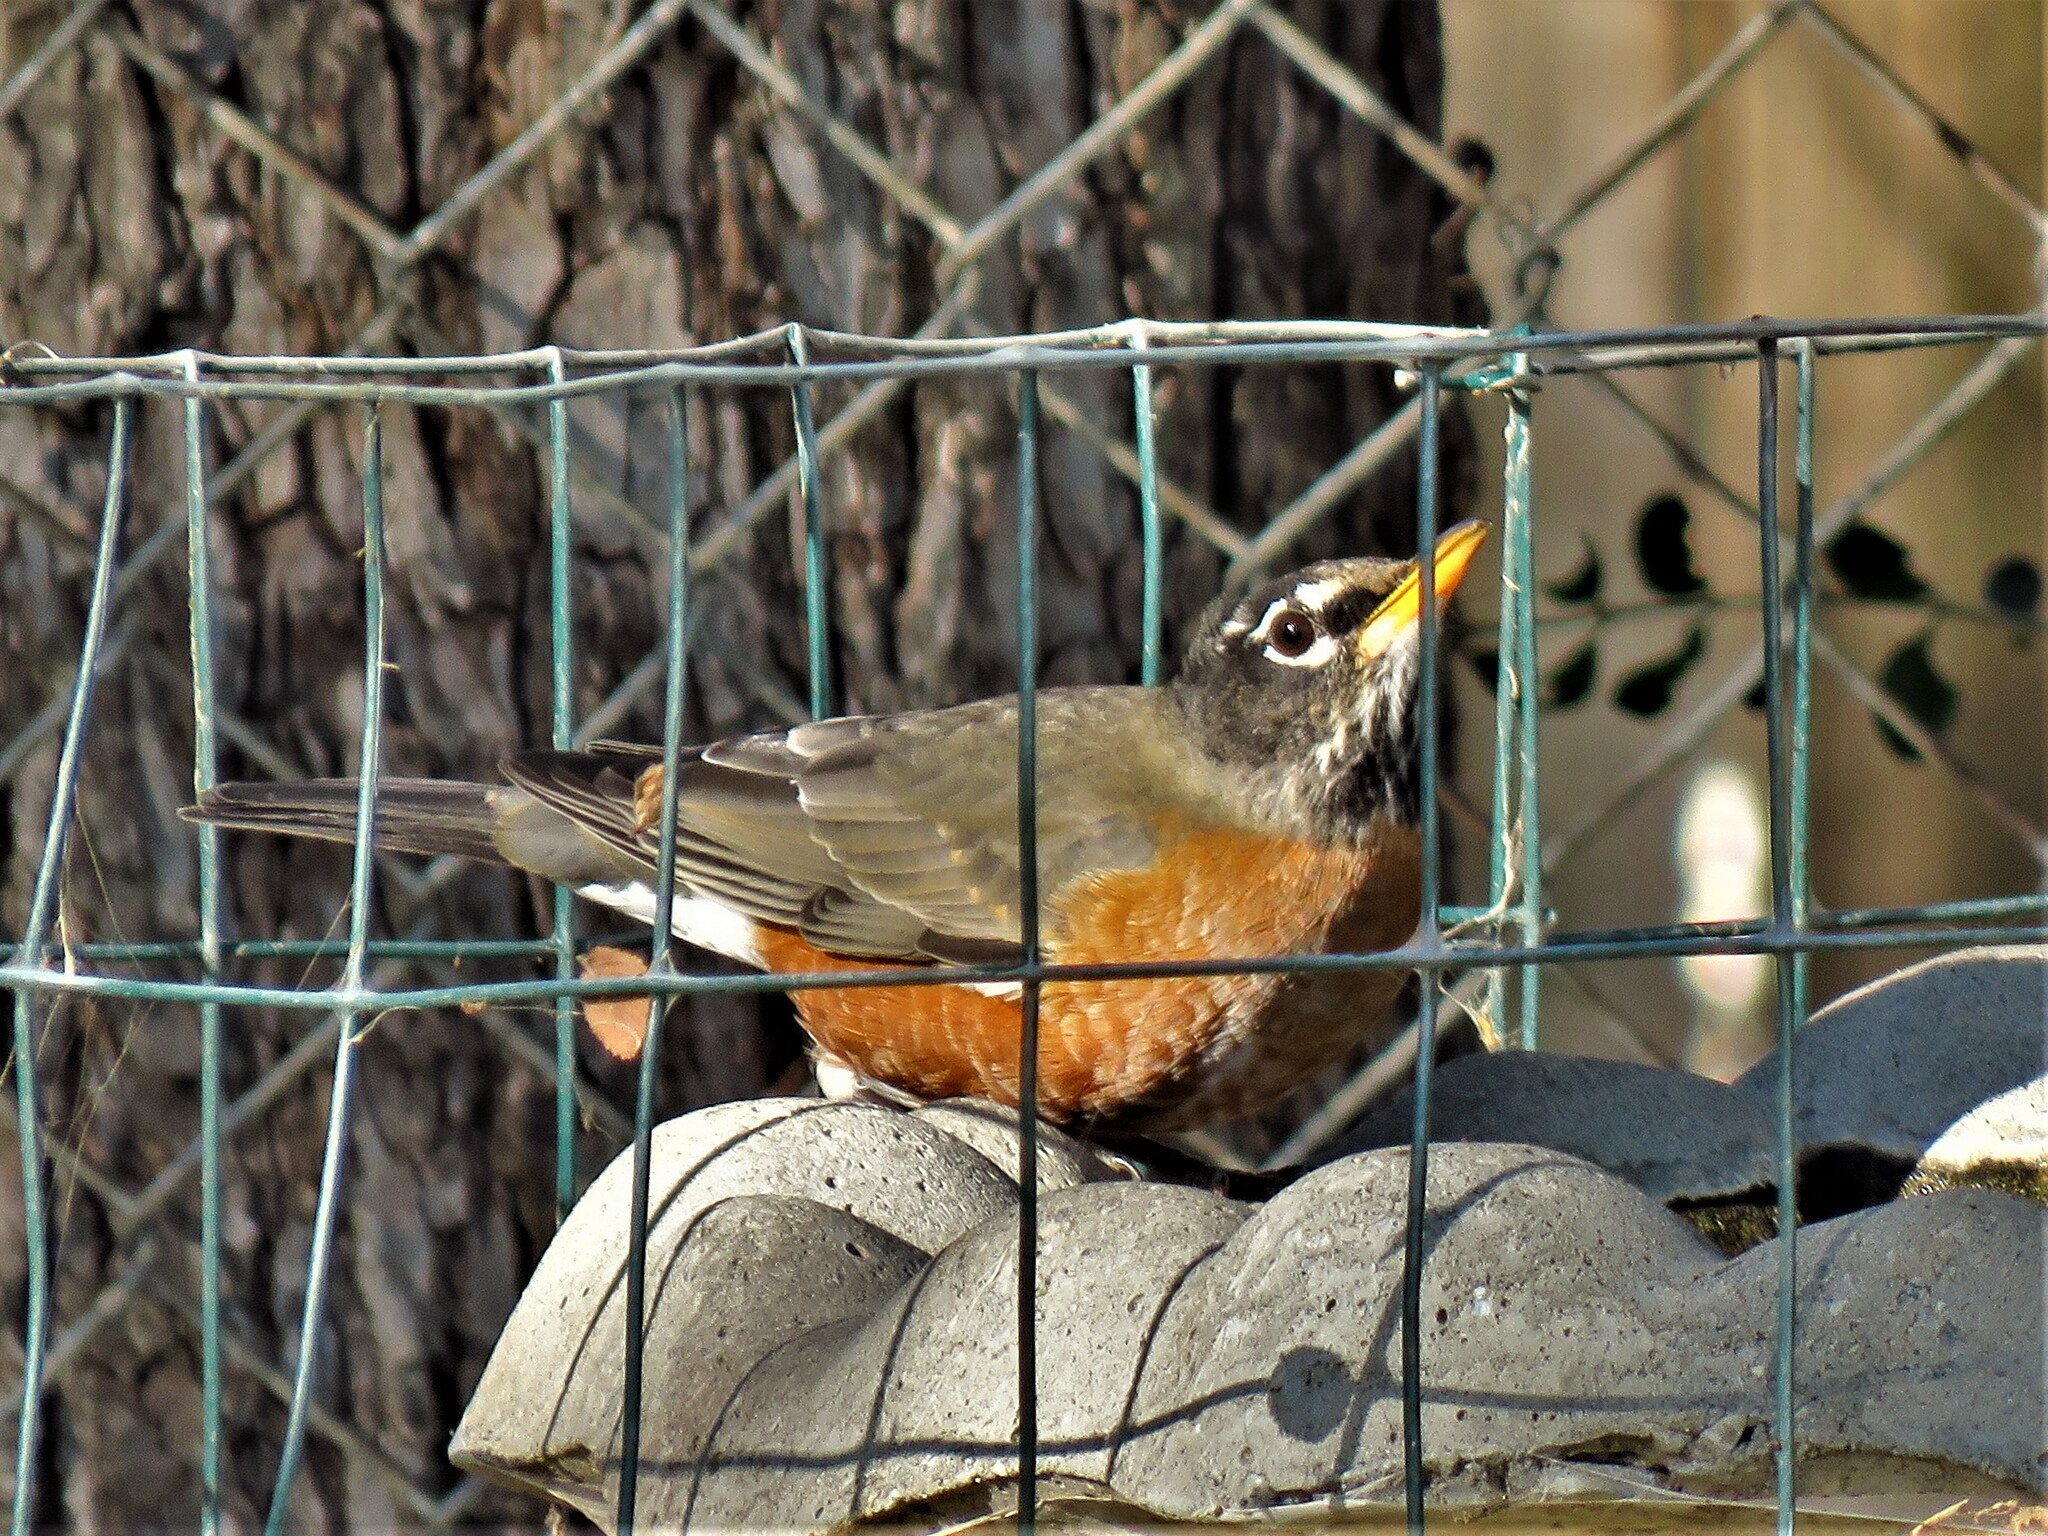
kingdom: Animalia
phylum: Chordata
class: Aves
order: Passeriformes
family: Turdidae
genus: Turdus
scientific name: Turdus migratorius
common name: American robin
